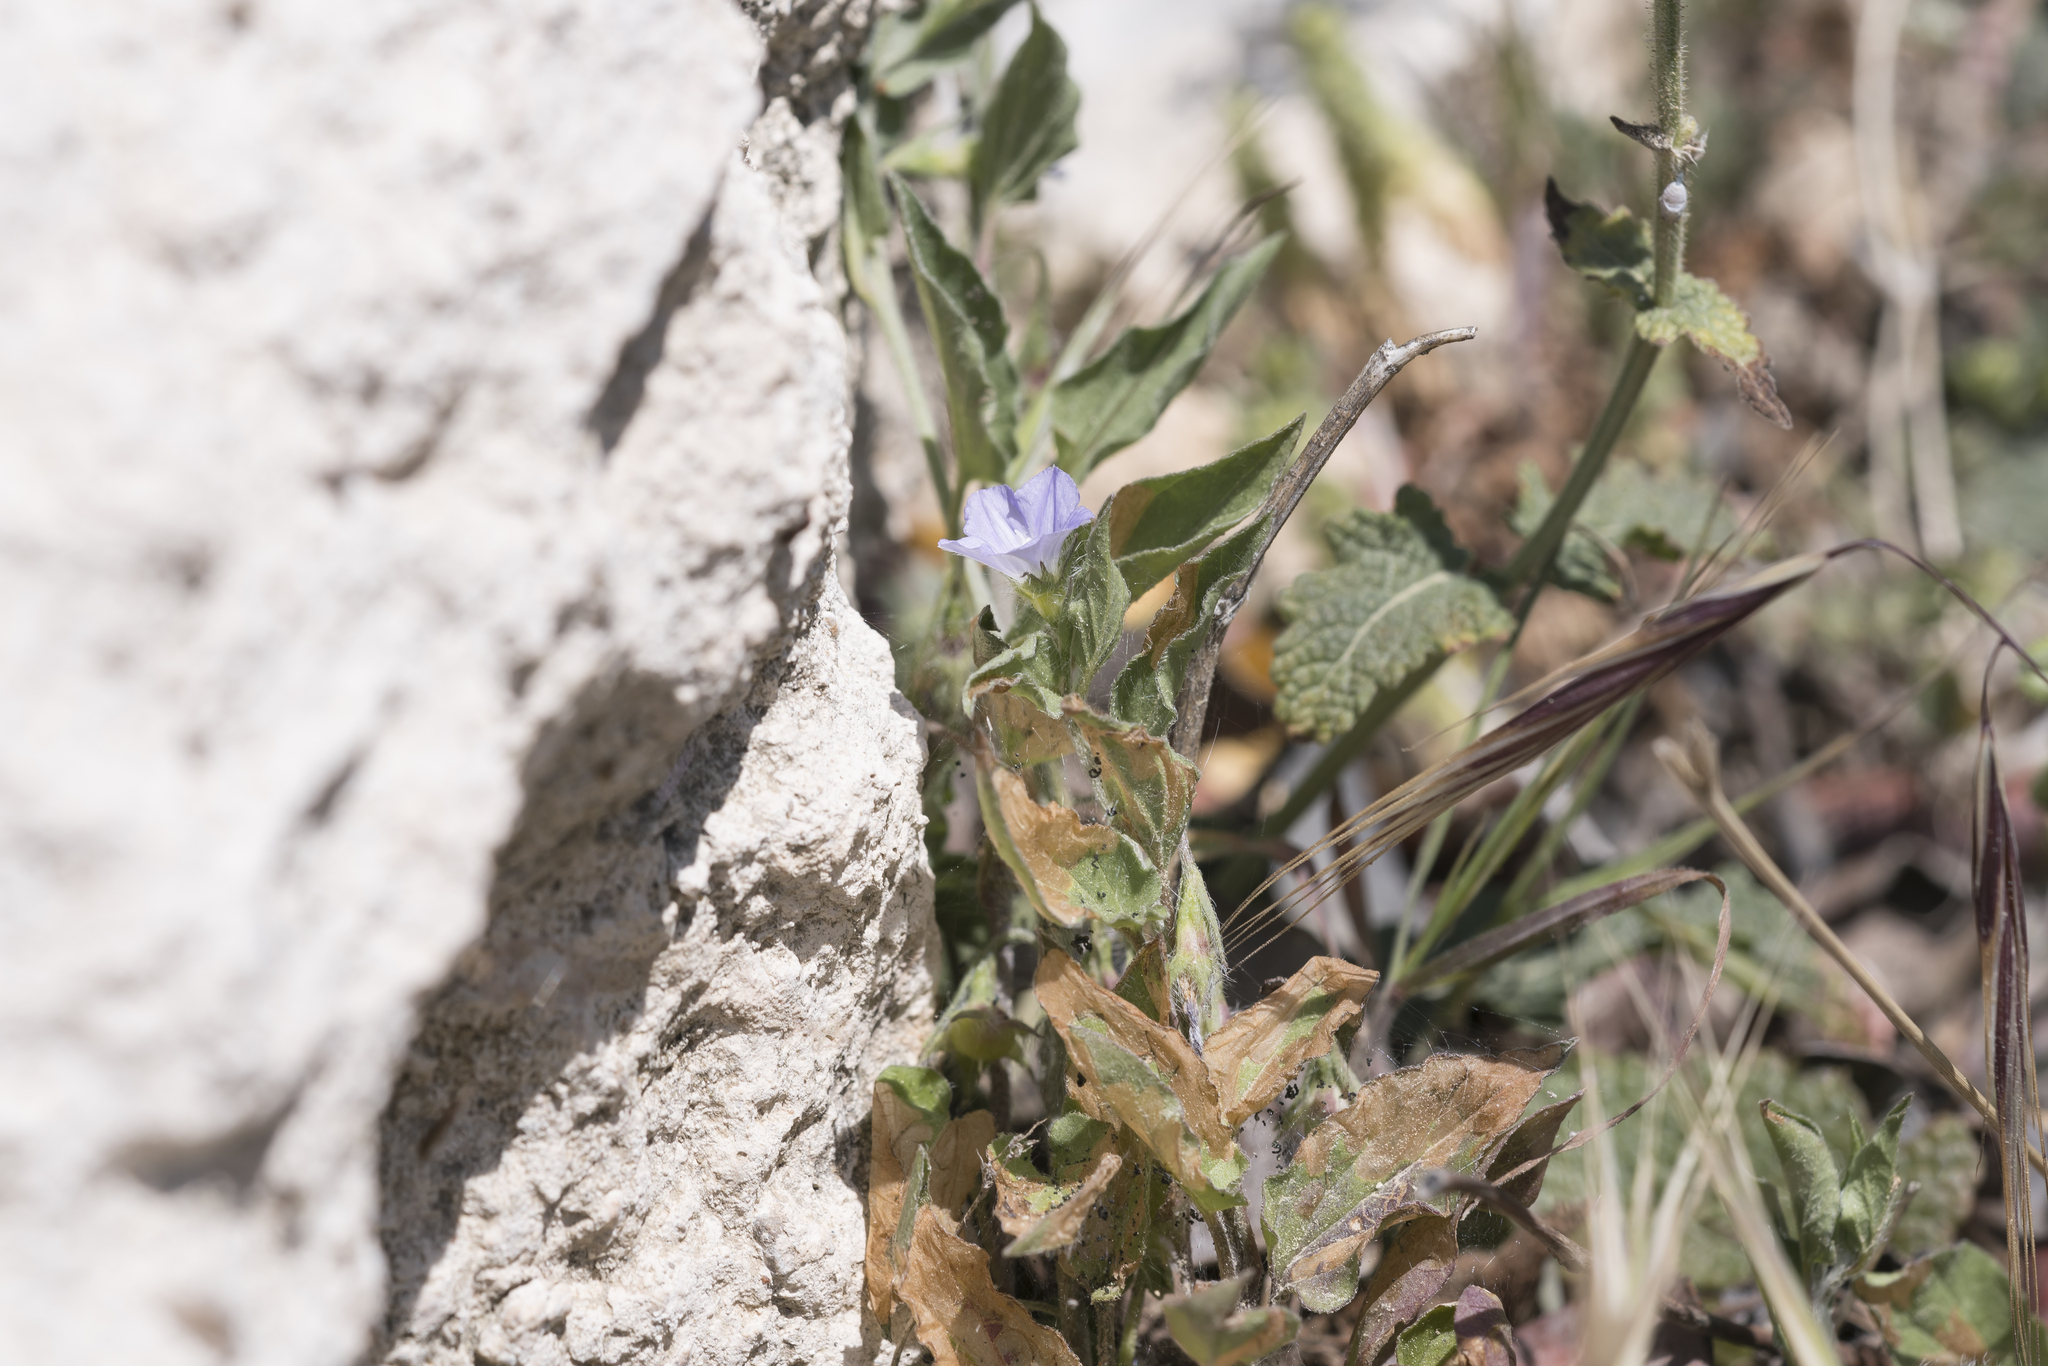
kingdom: Plantae
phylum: Tracheophyta
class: Magnoliopsida
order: Solanales
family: Convolvulaceae
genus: Convolvulus
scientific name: Convolvulus siculus
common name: Small blue-convolvulus
